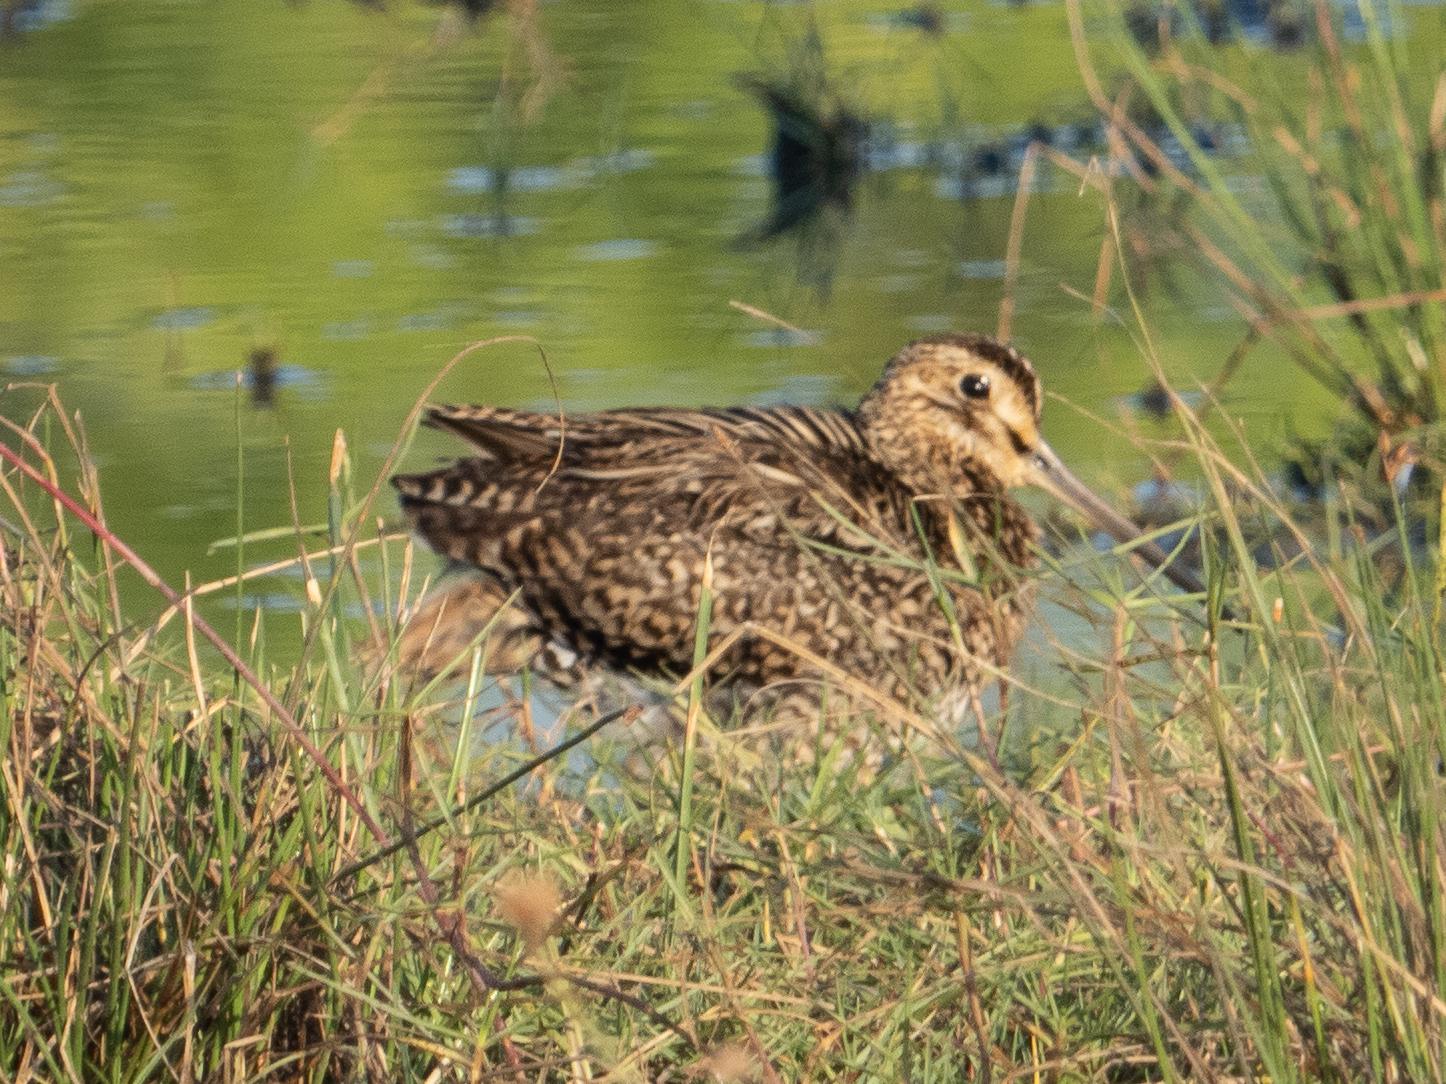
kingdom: Animalia
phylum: Chordata
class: Aves
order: Charadriiformes
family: Scolopacidae
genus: Gallinago
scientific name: Gallinago stenura
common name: Pin-tailed snipe
